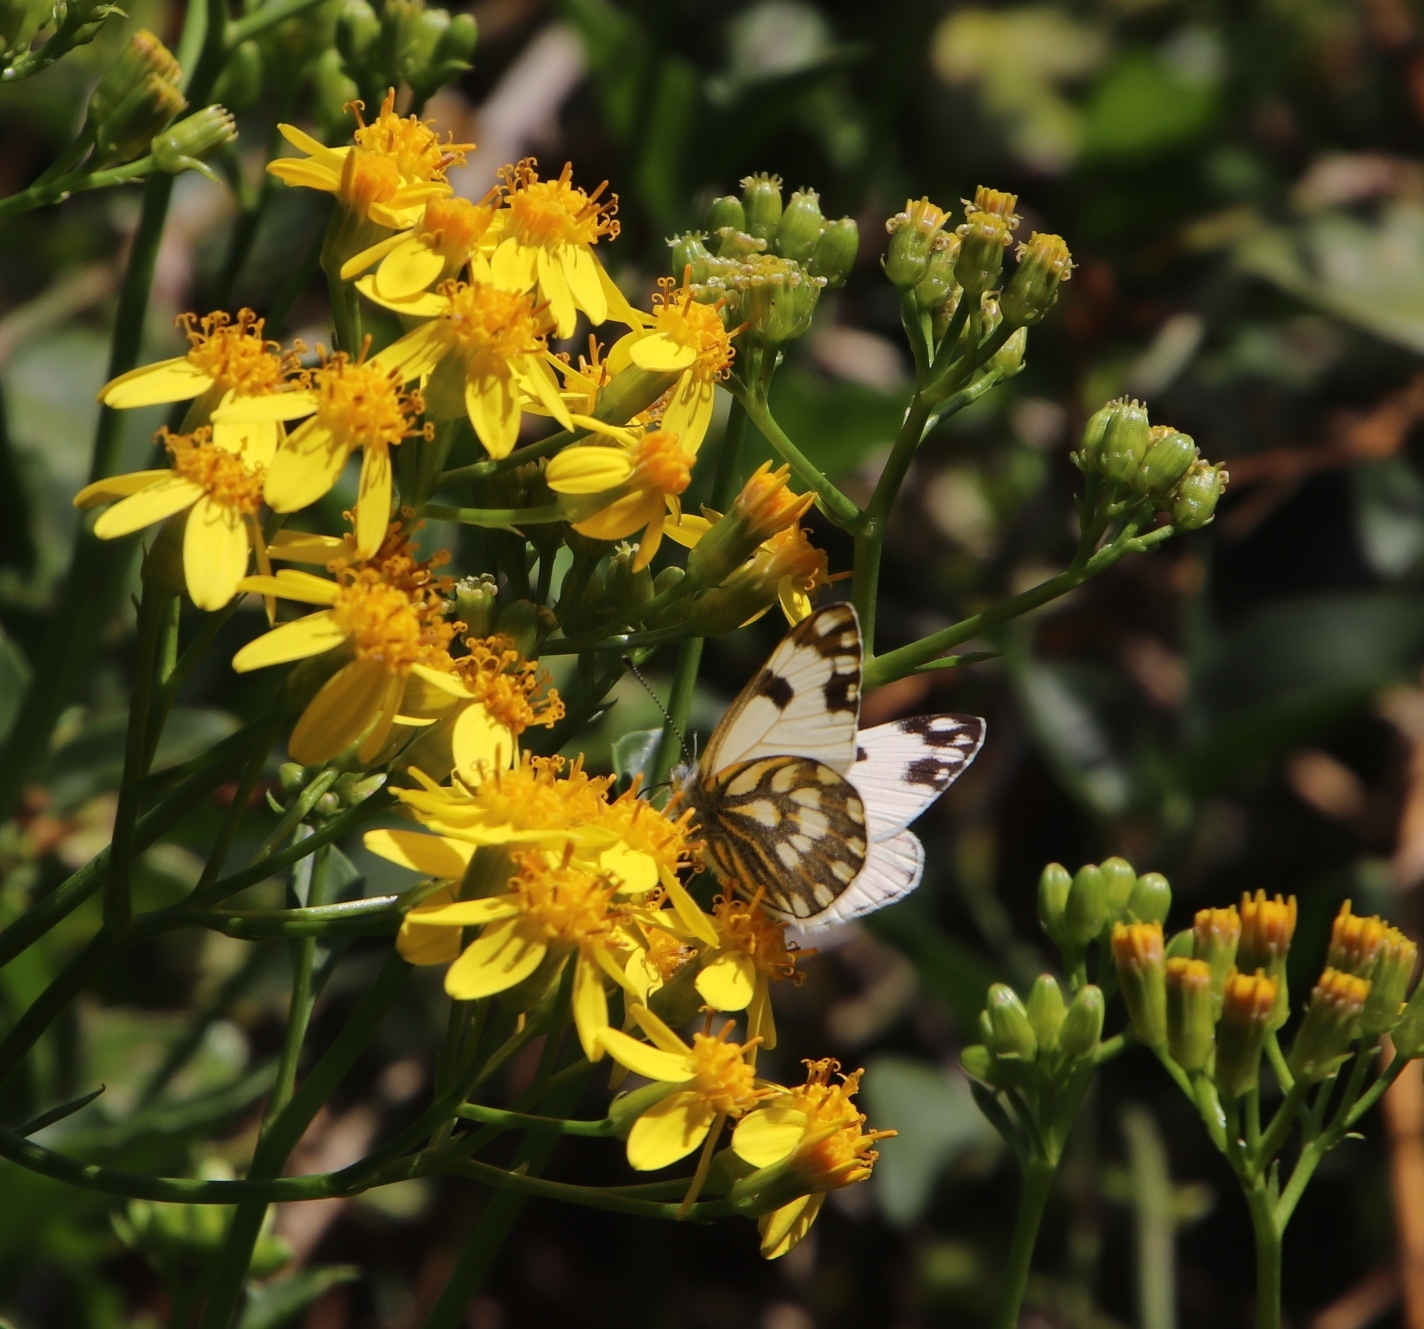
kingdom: Animalia
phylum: Arthropoda
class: Insecta
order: Lepidoptera
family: Pieridae
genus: Pontia
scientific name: Pontia helice
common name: Meadow white
